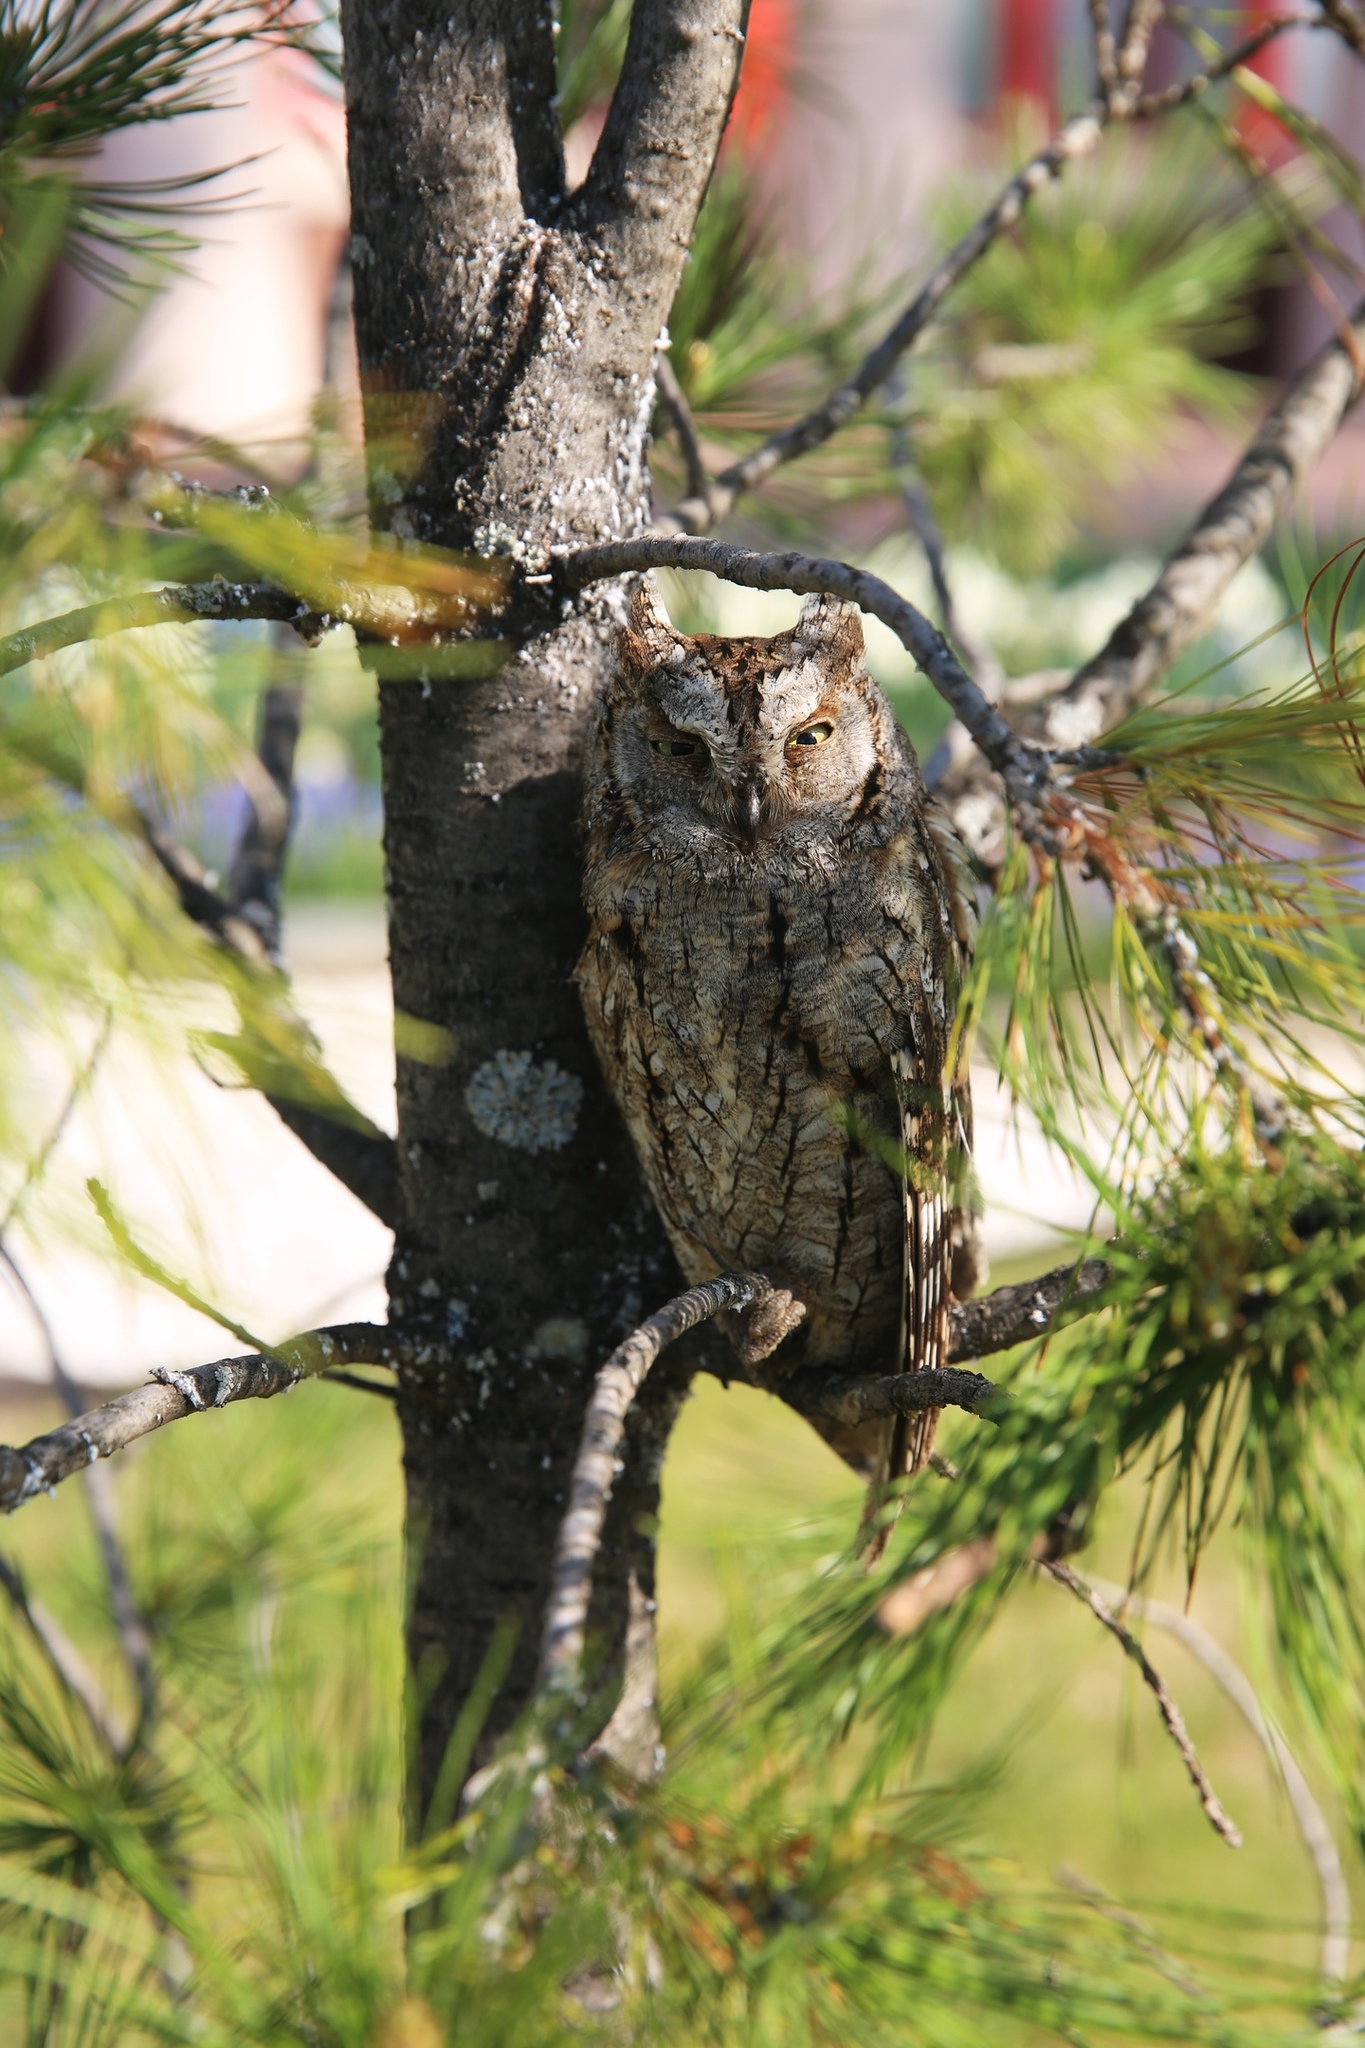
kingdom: Animalia
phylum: Chordata
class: Aves
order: Strigiformes
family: Strigidae
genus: Otus
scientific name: Otus scops
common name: Eurasian scops owl
